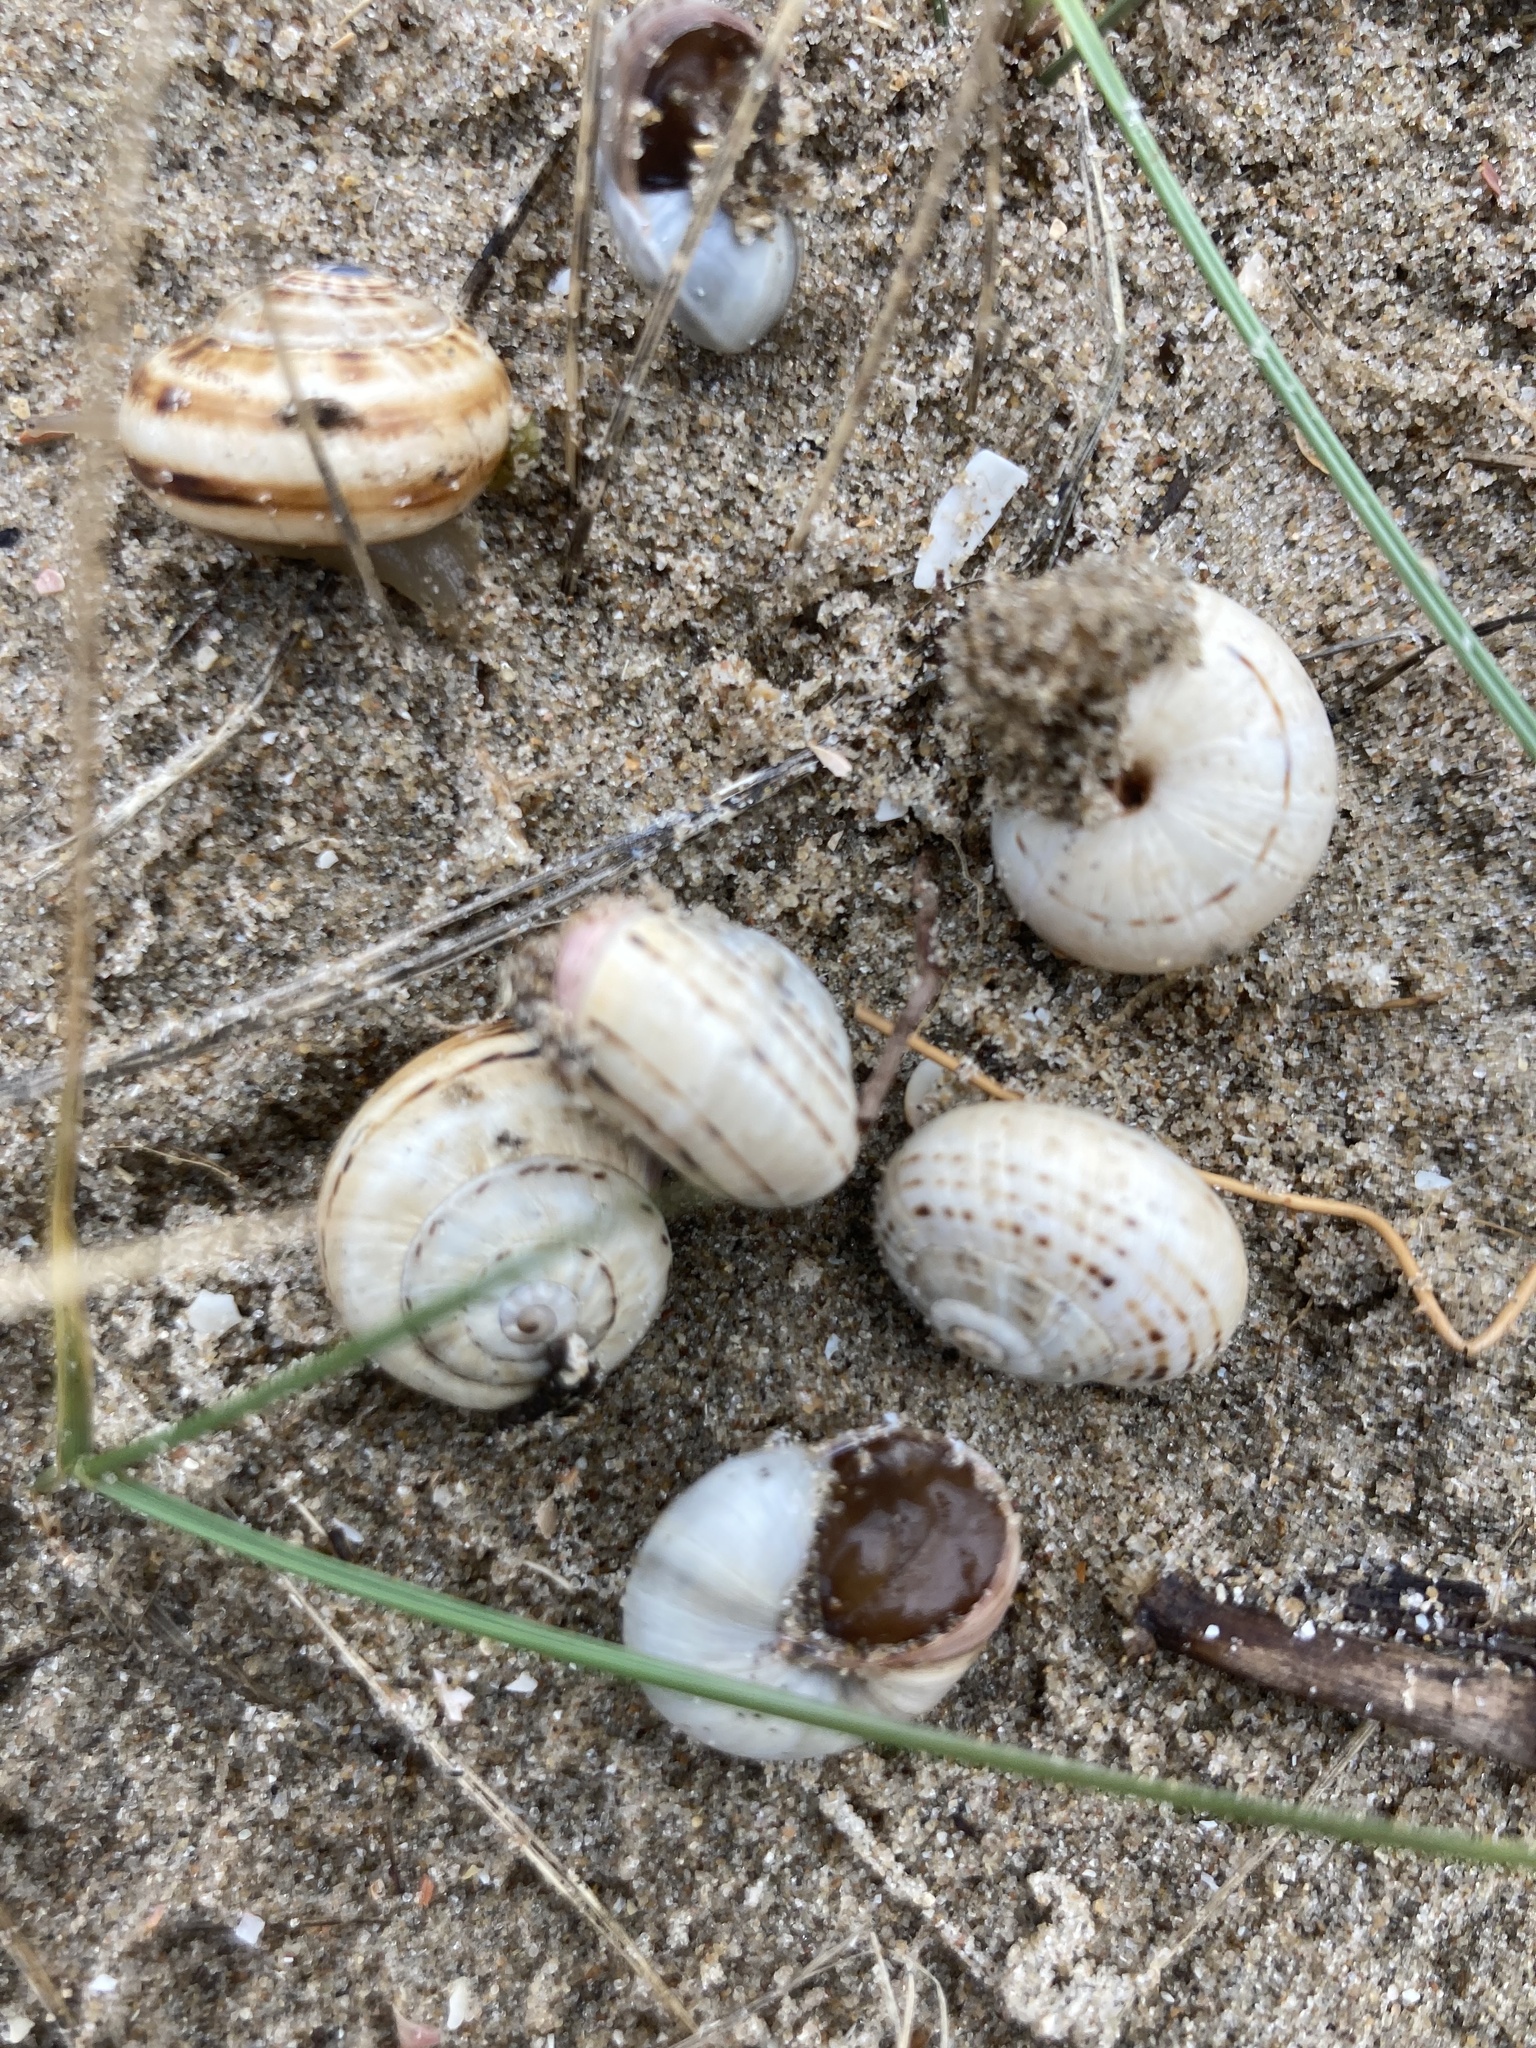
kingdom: Animalia
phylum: Mollusca
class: Gastropoda
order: Stylommatophora
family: Helicidae
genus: Theba
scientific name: Theba pisana
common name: White snail
